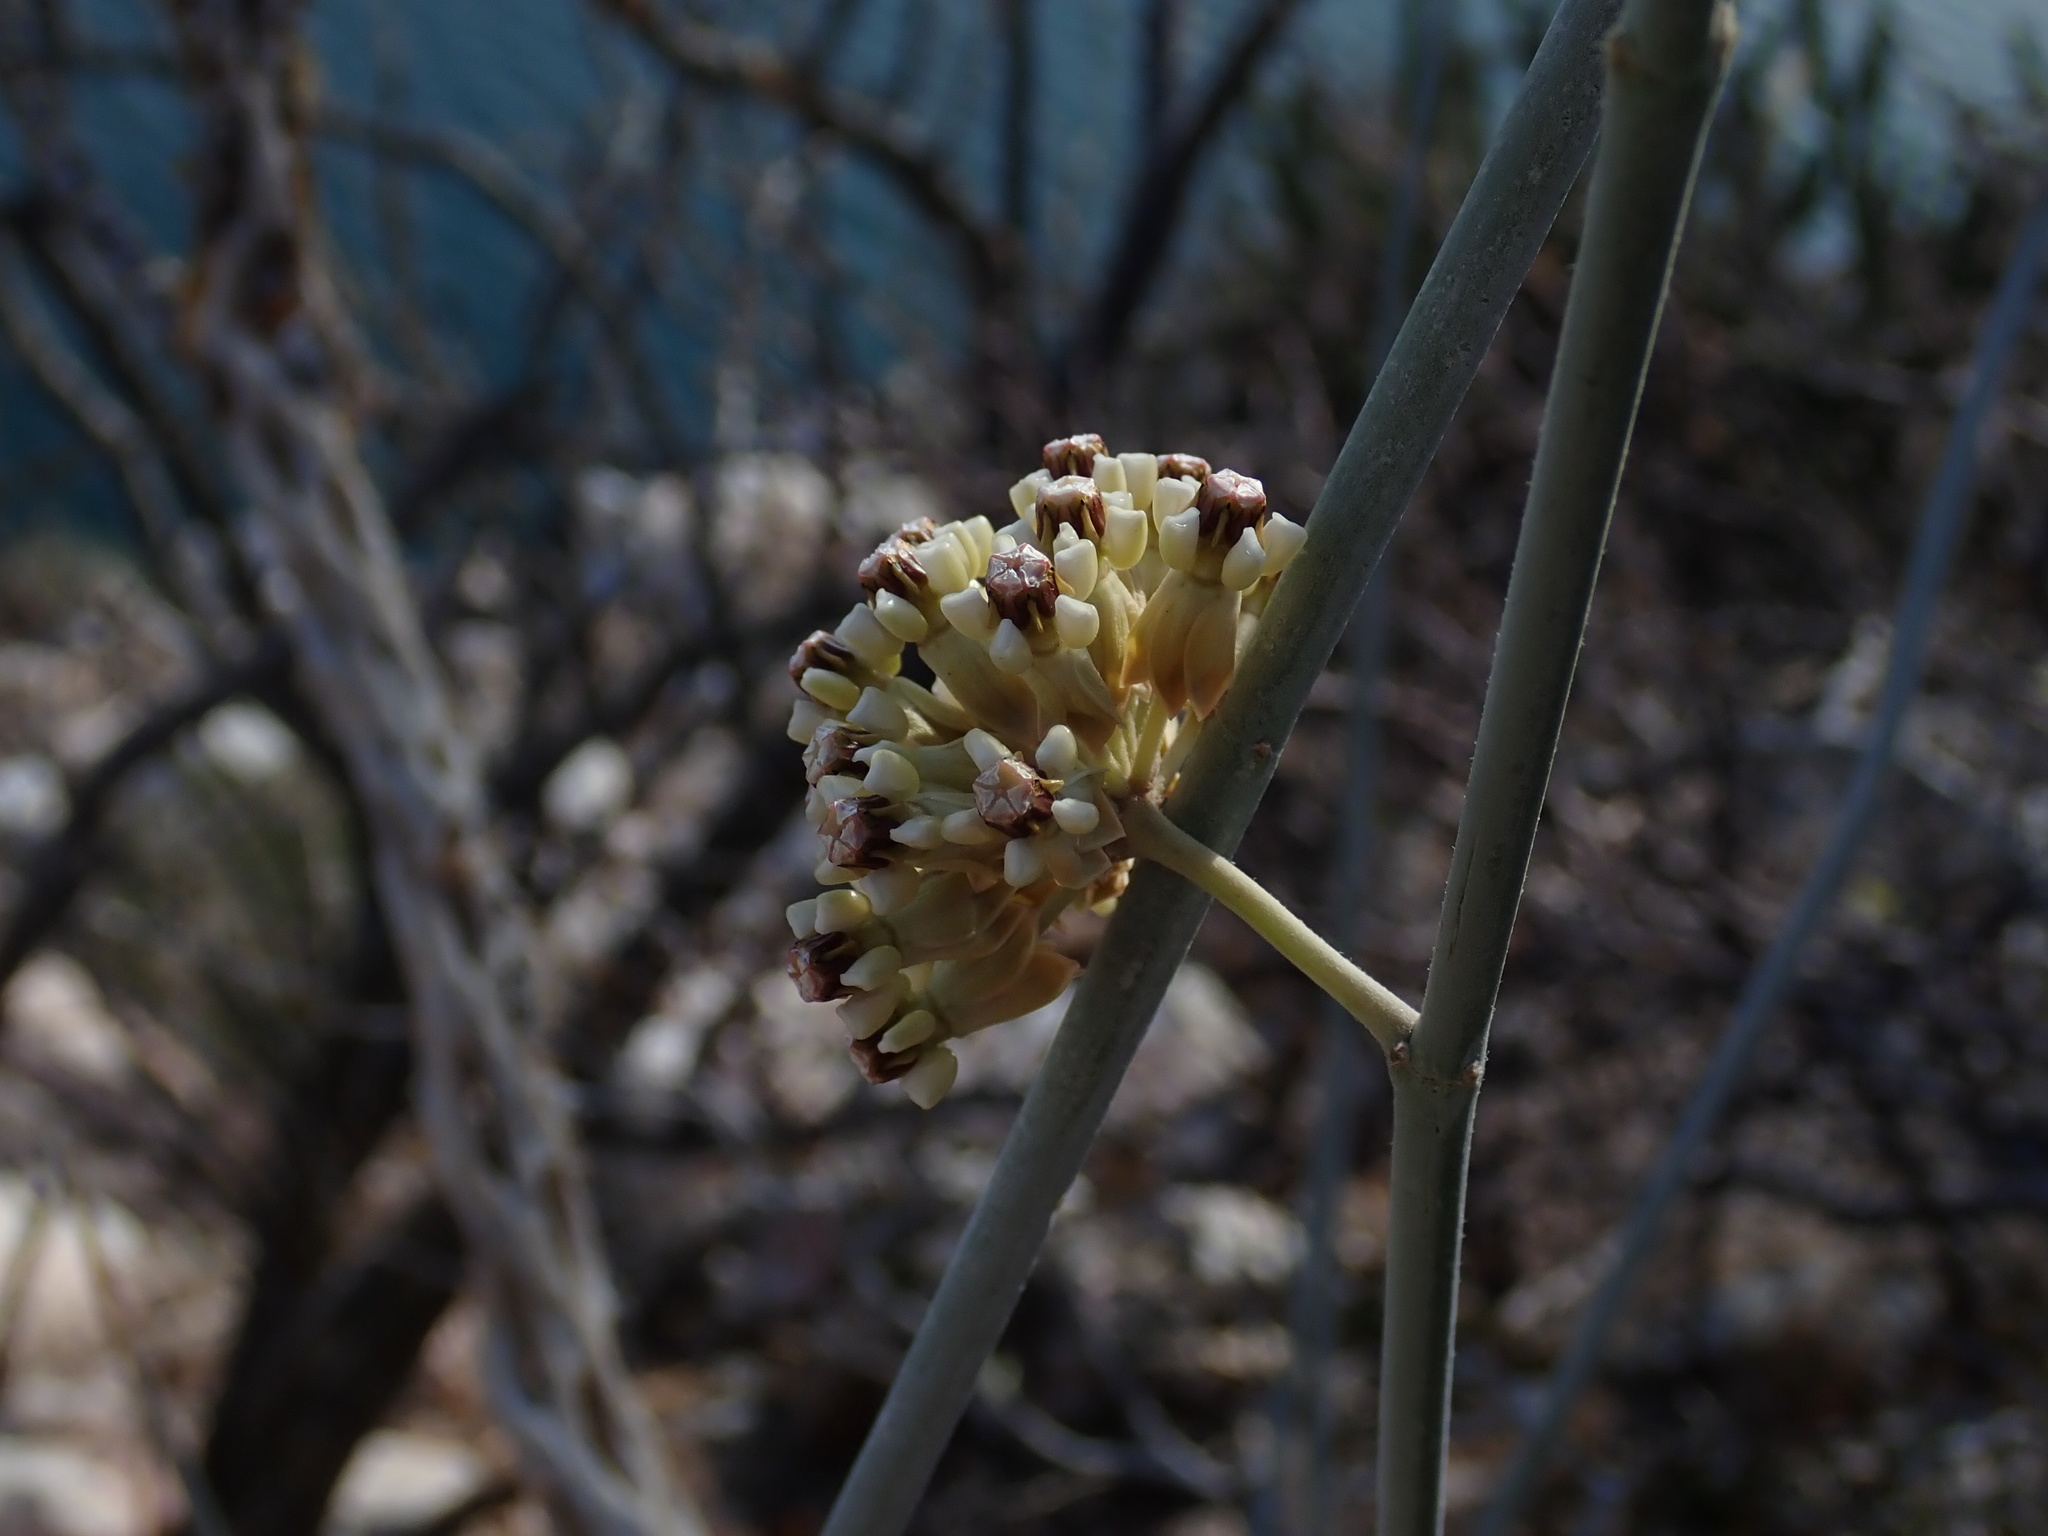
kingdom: Plantae
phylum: Tracheophyta
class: Magnoliopsida
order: Gentianales
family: Apocynaceae
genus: Asclepias
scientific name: Asclepias albicans
